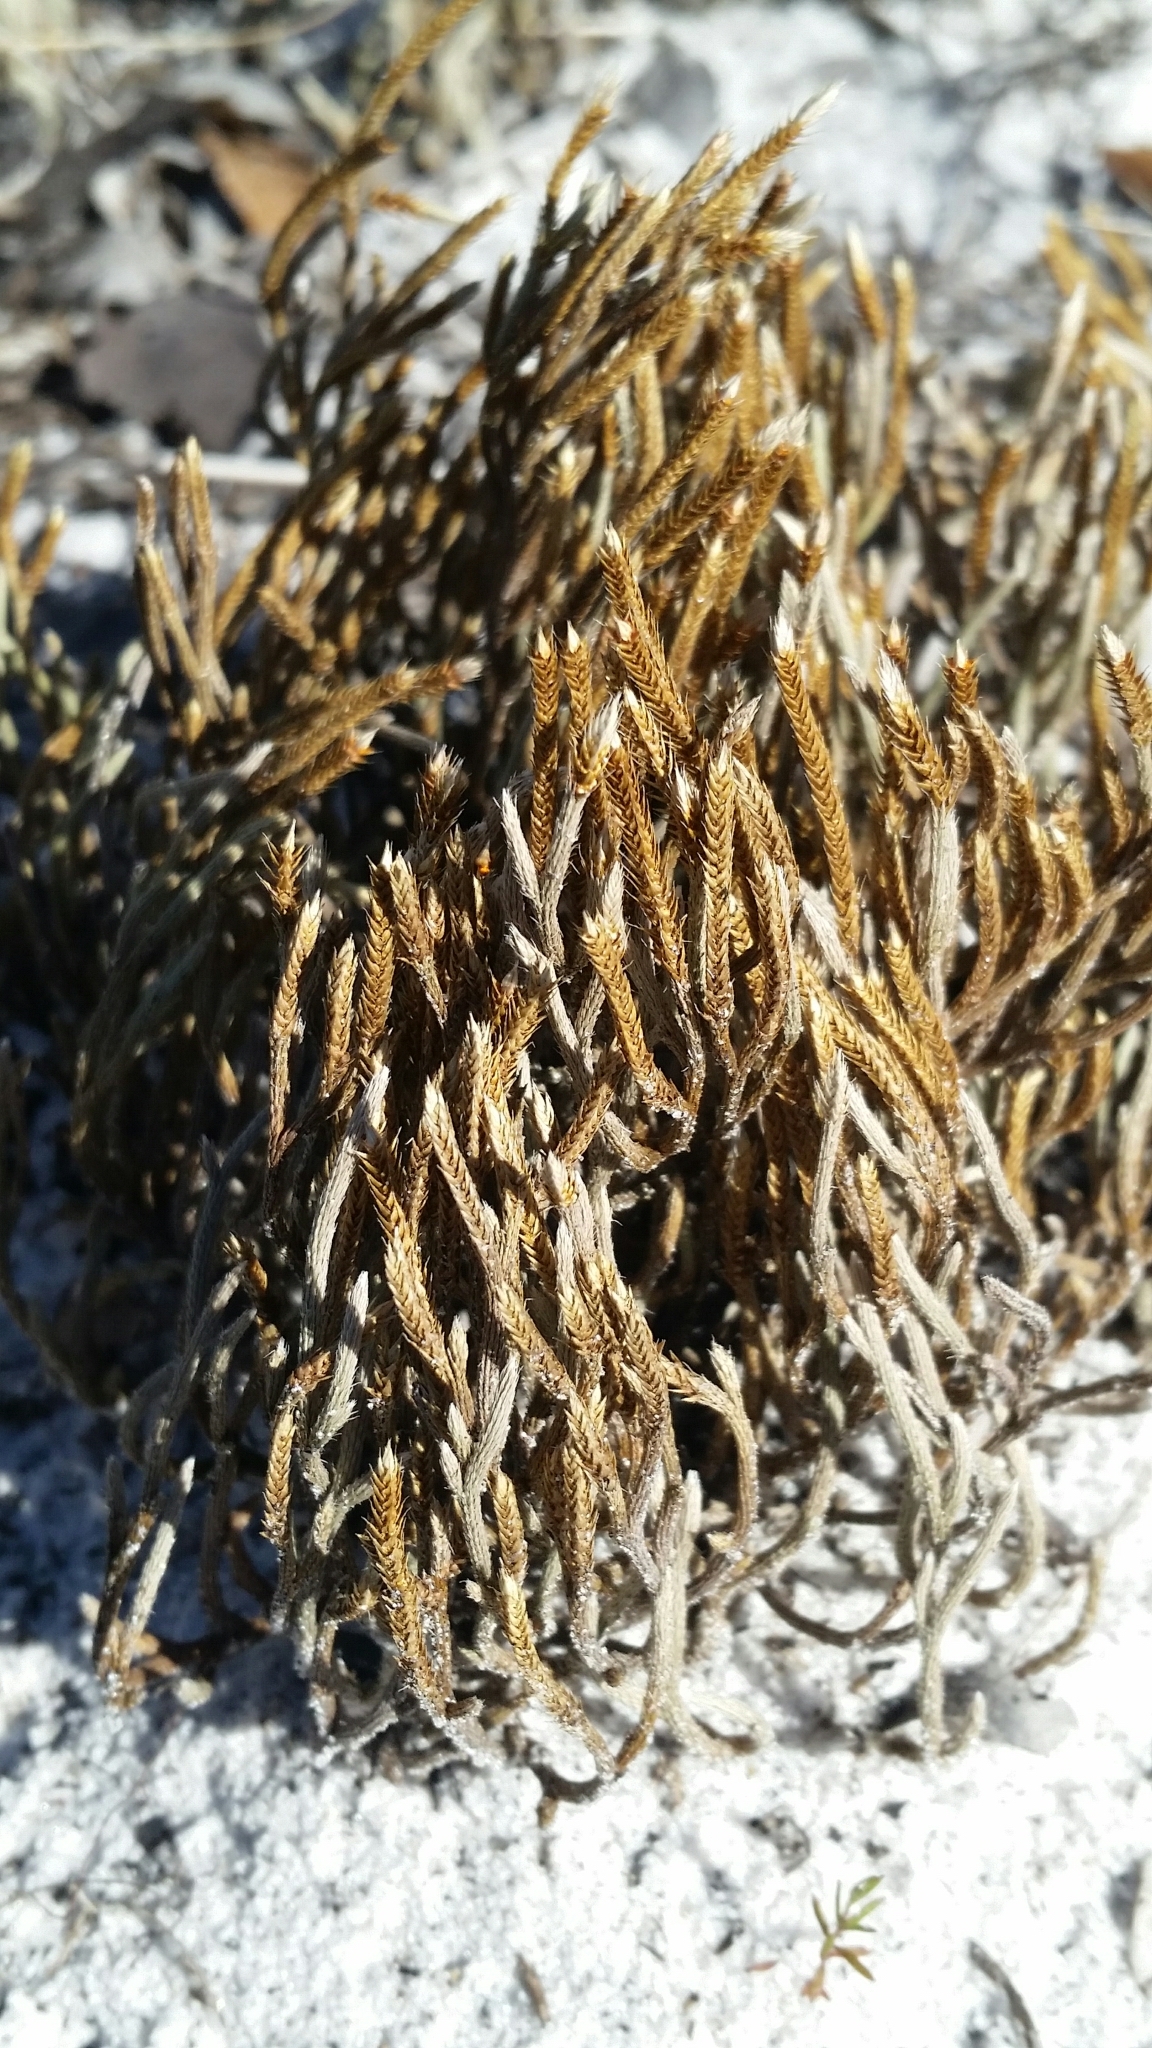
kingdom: Plantae
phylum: Tracheophyta
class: Lycopodiopsida
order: Selaginellales
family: Selaginellaceae
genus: Selaginella
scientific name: Selaginella arenicola
